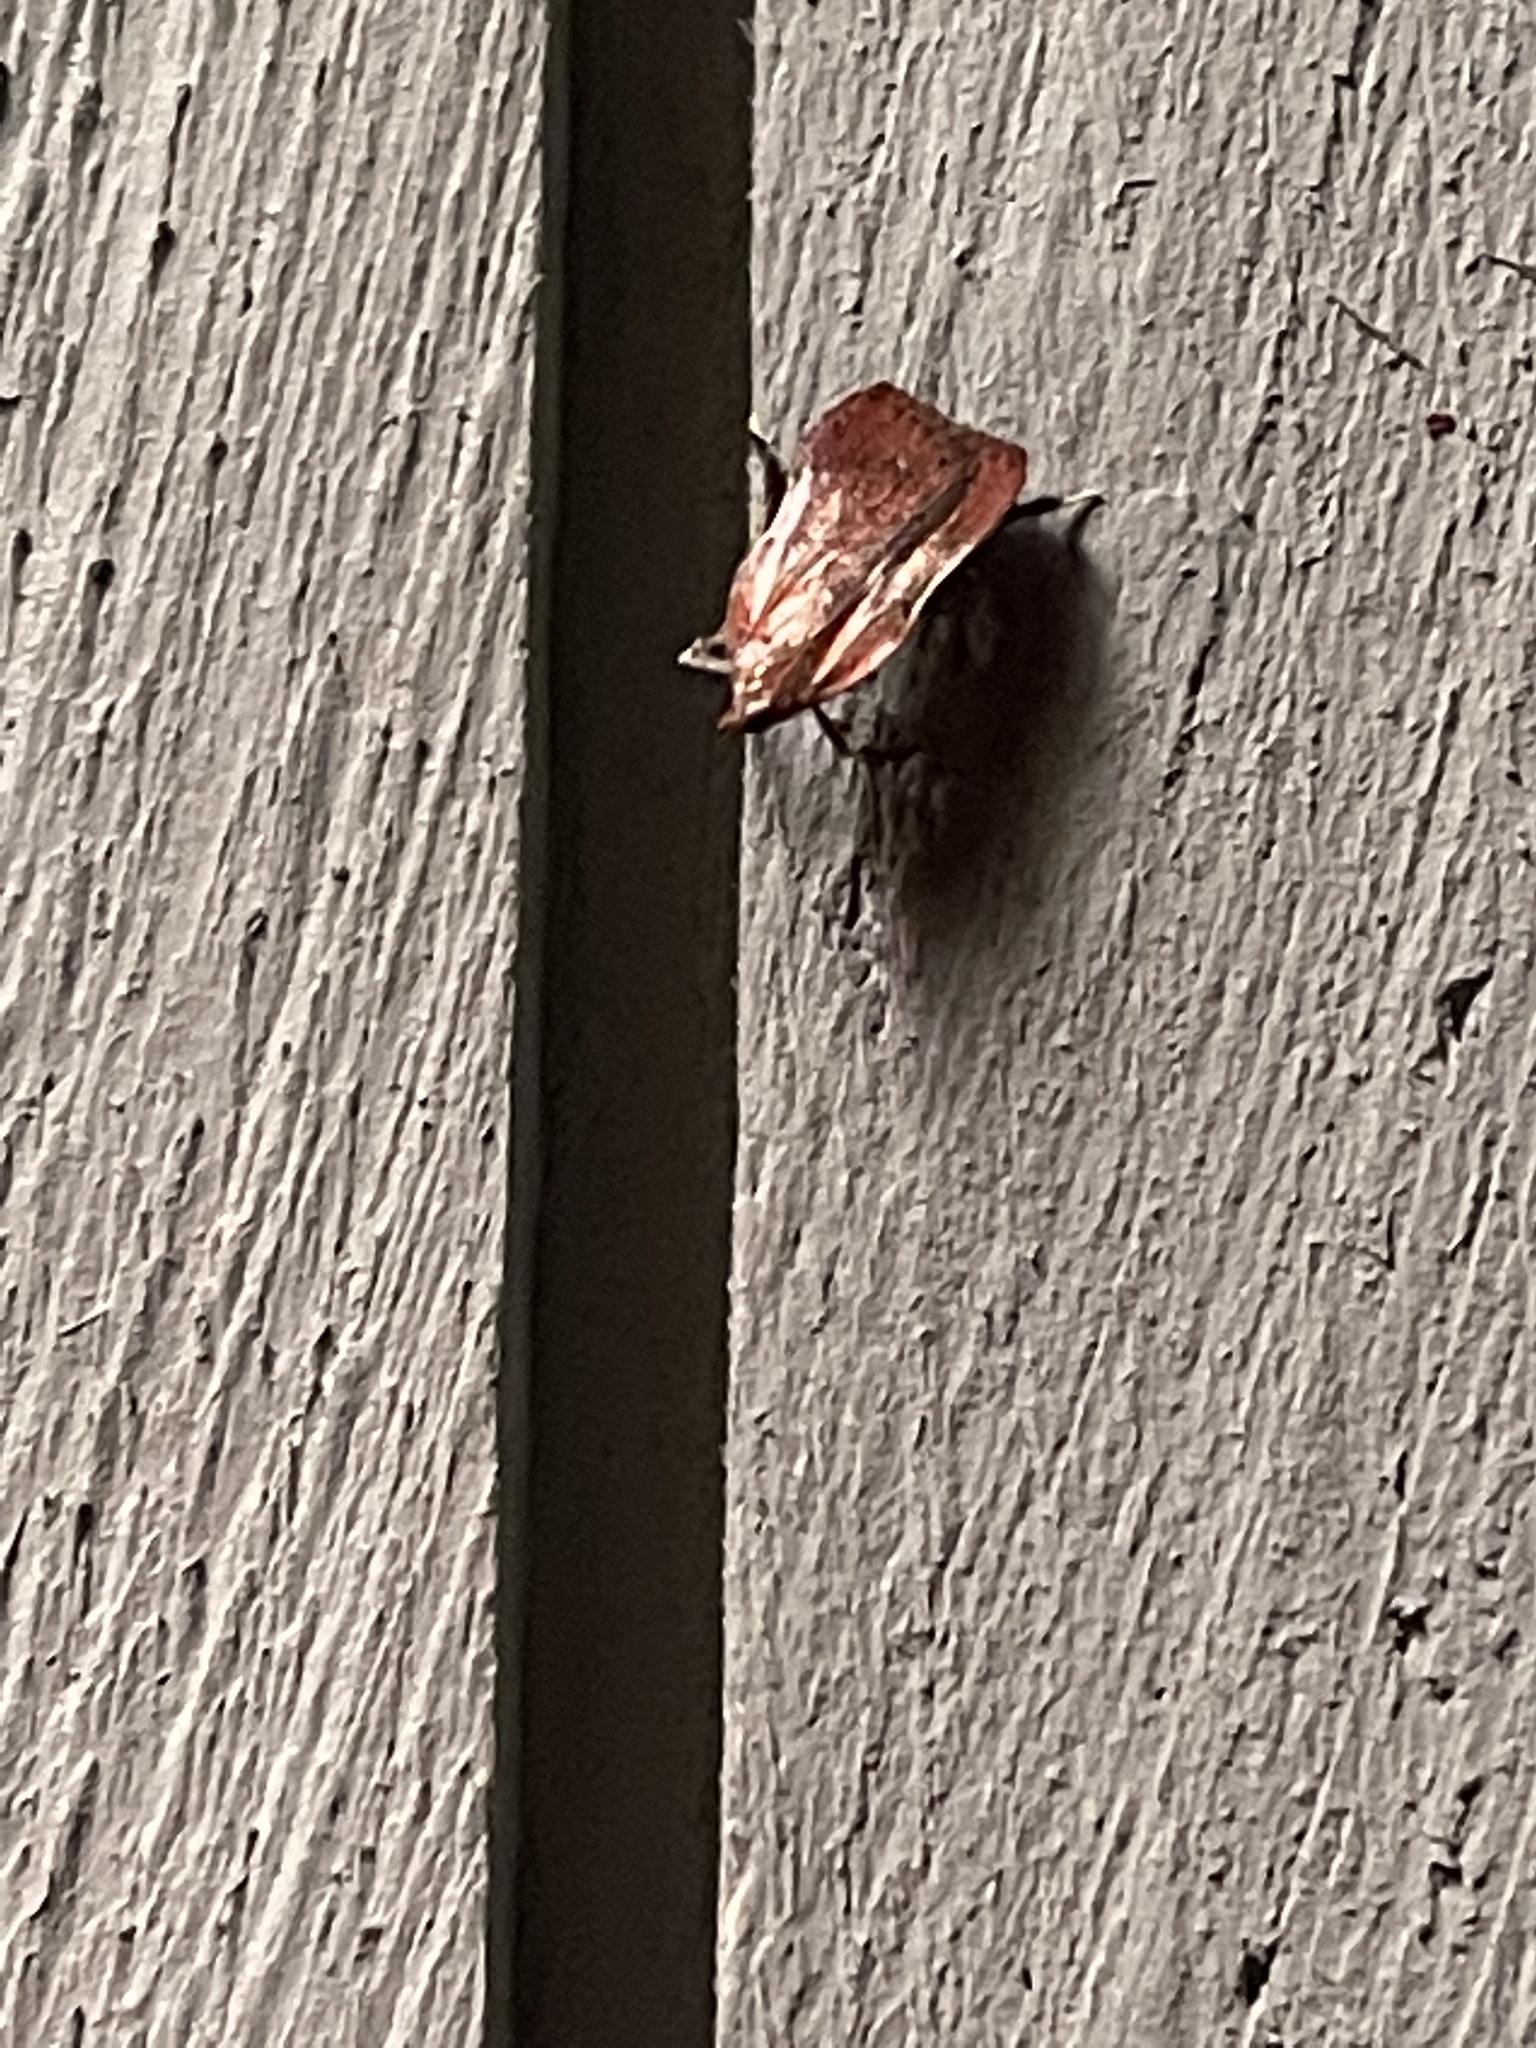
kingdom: Animalia
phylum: Arthropoda
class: Insecta
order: Lepidoptera
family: Pyralidae
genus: Galasa
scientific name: Galasa nigrinodis
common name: Boxwood leaftier moth
